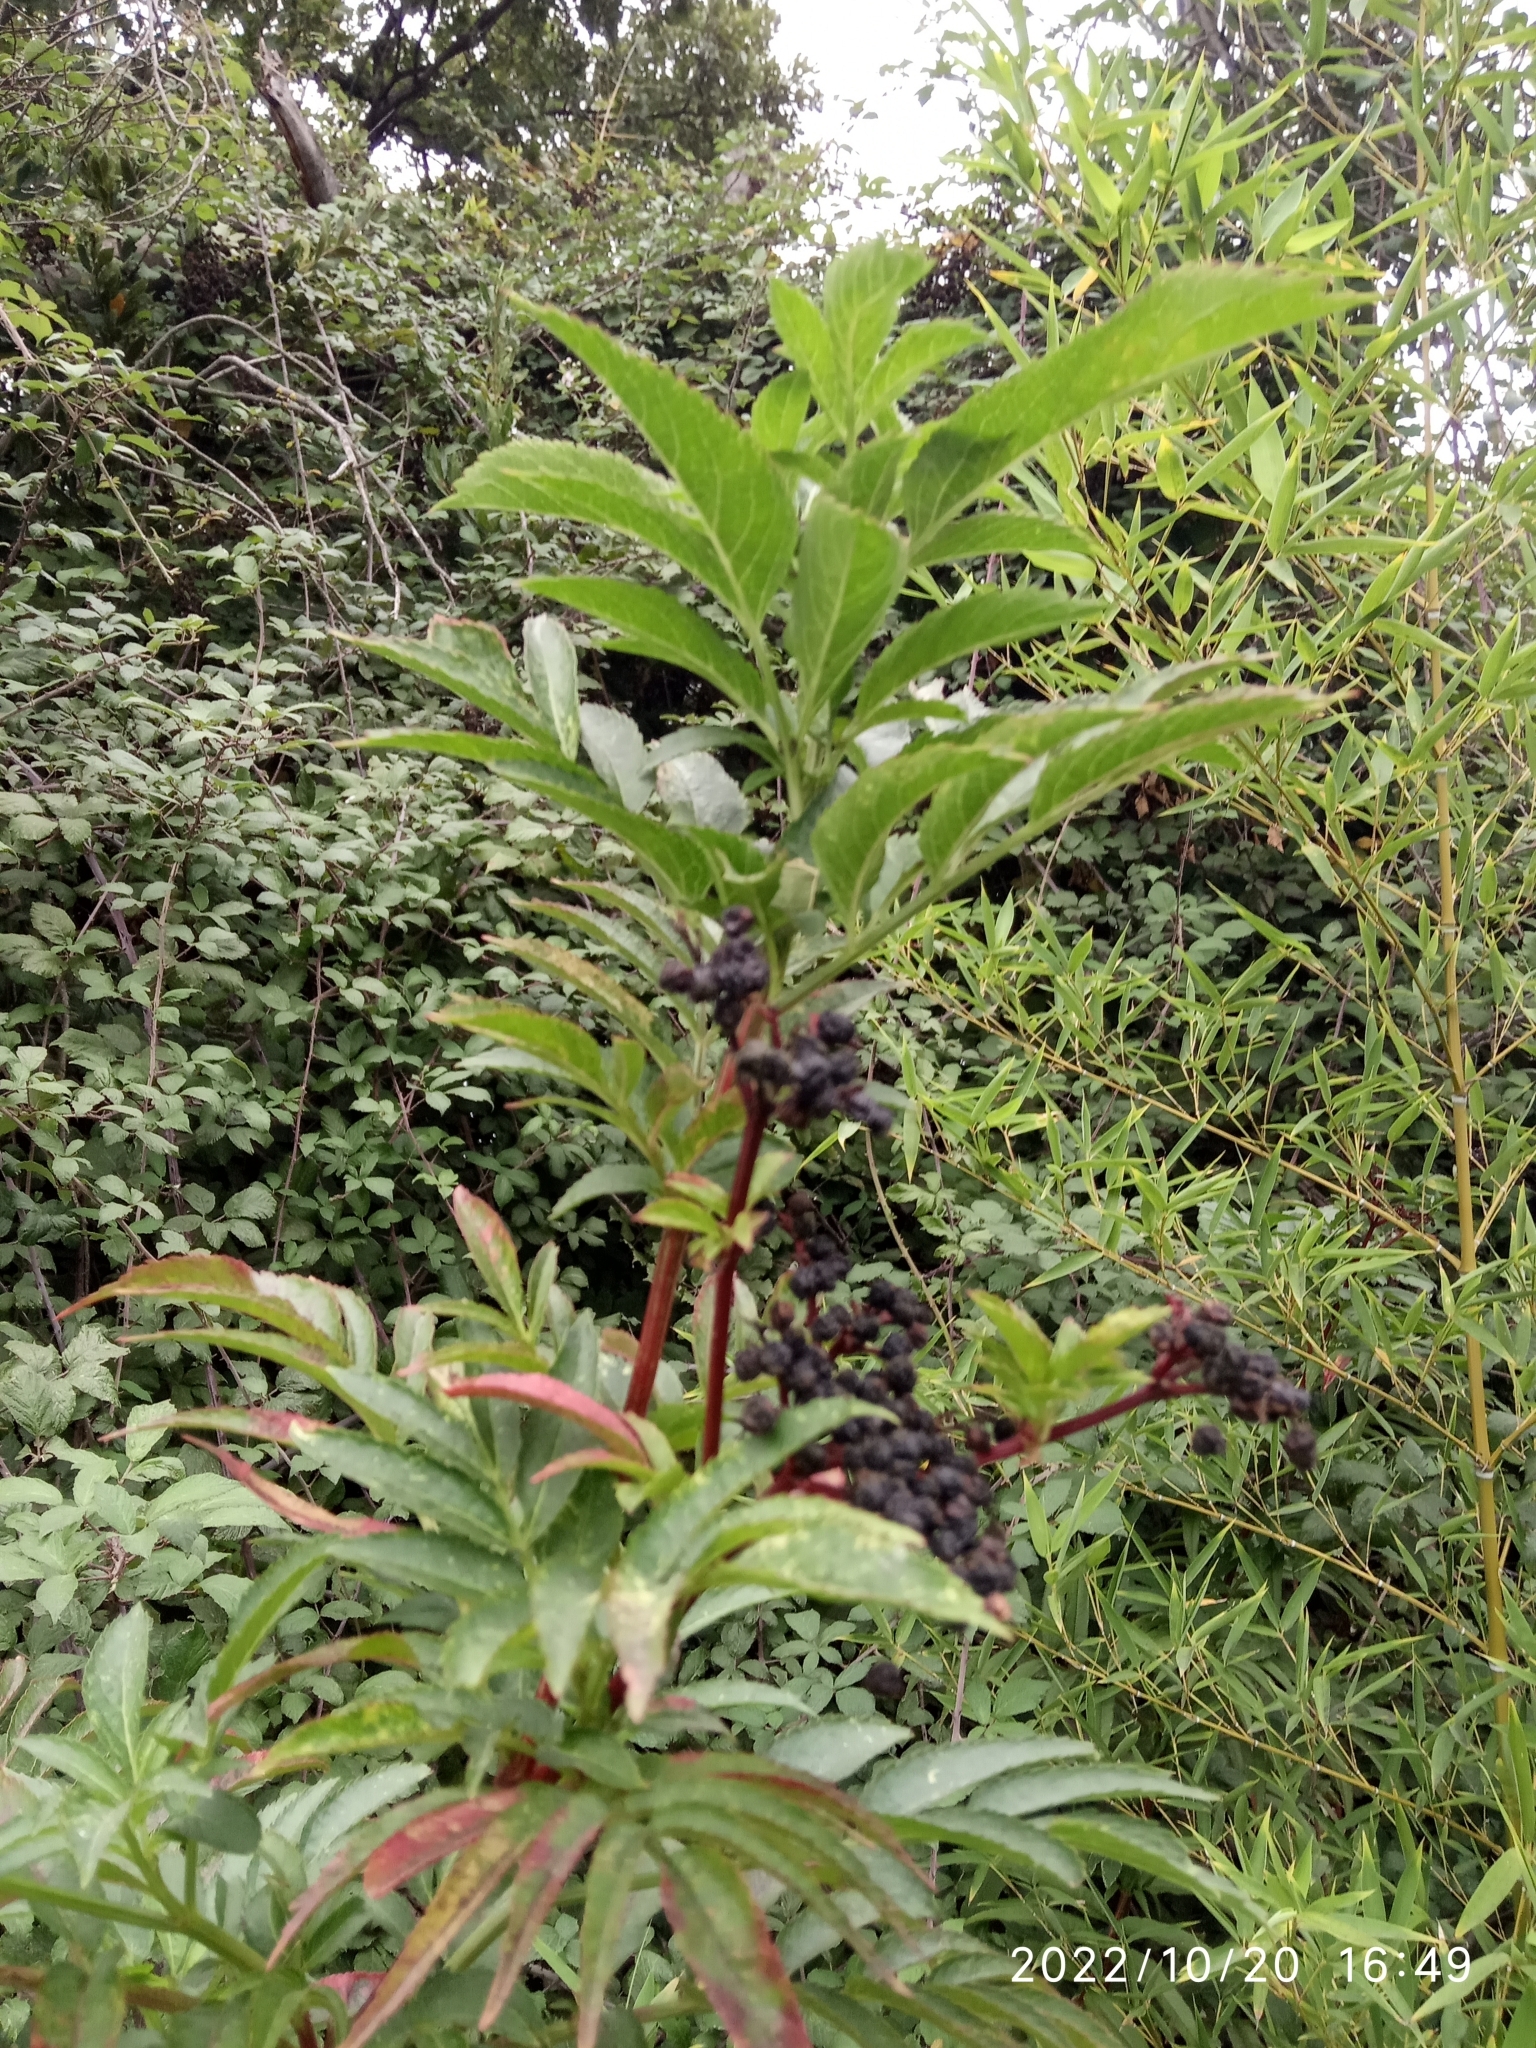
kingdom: Plantae
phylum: Tracheophyta
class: Magnoliopsida
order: Dipsacales
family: Viburnaceae
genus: Sambucus
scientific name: Sambucus ebulus
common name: Dwarf elder
